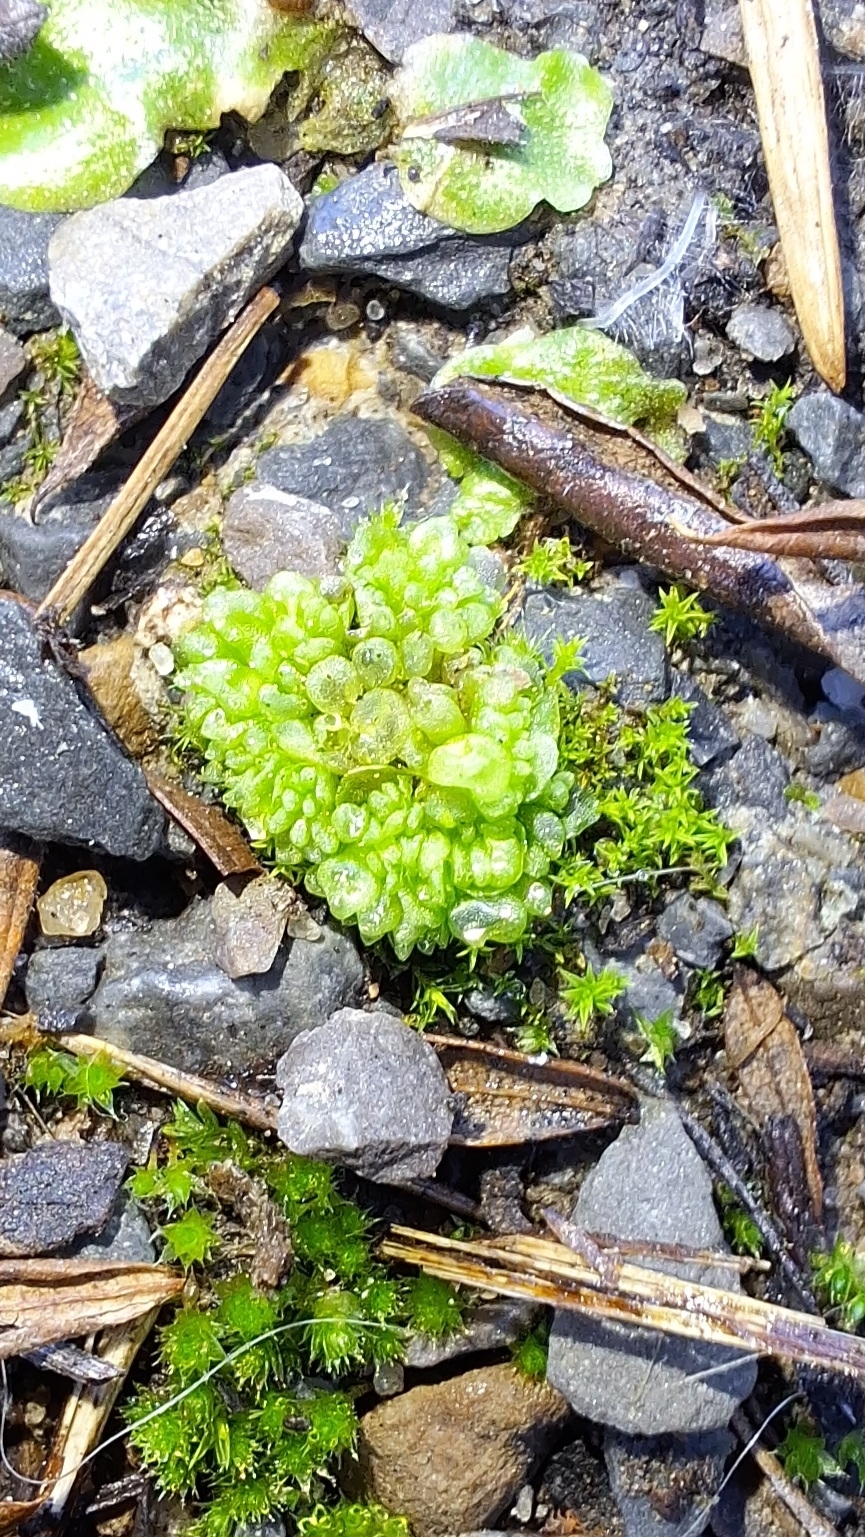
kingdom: Plantae
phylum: Marchantiophyta
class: Marchantiopsida
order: Sphaerocarpales
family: Sphaerocarpaceae
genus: Sphaerocarpos
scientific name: Sphaerocarpos texanus
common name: Texas balloonwort
